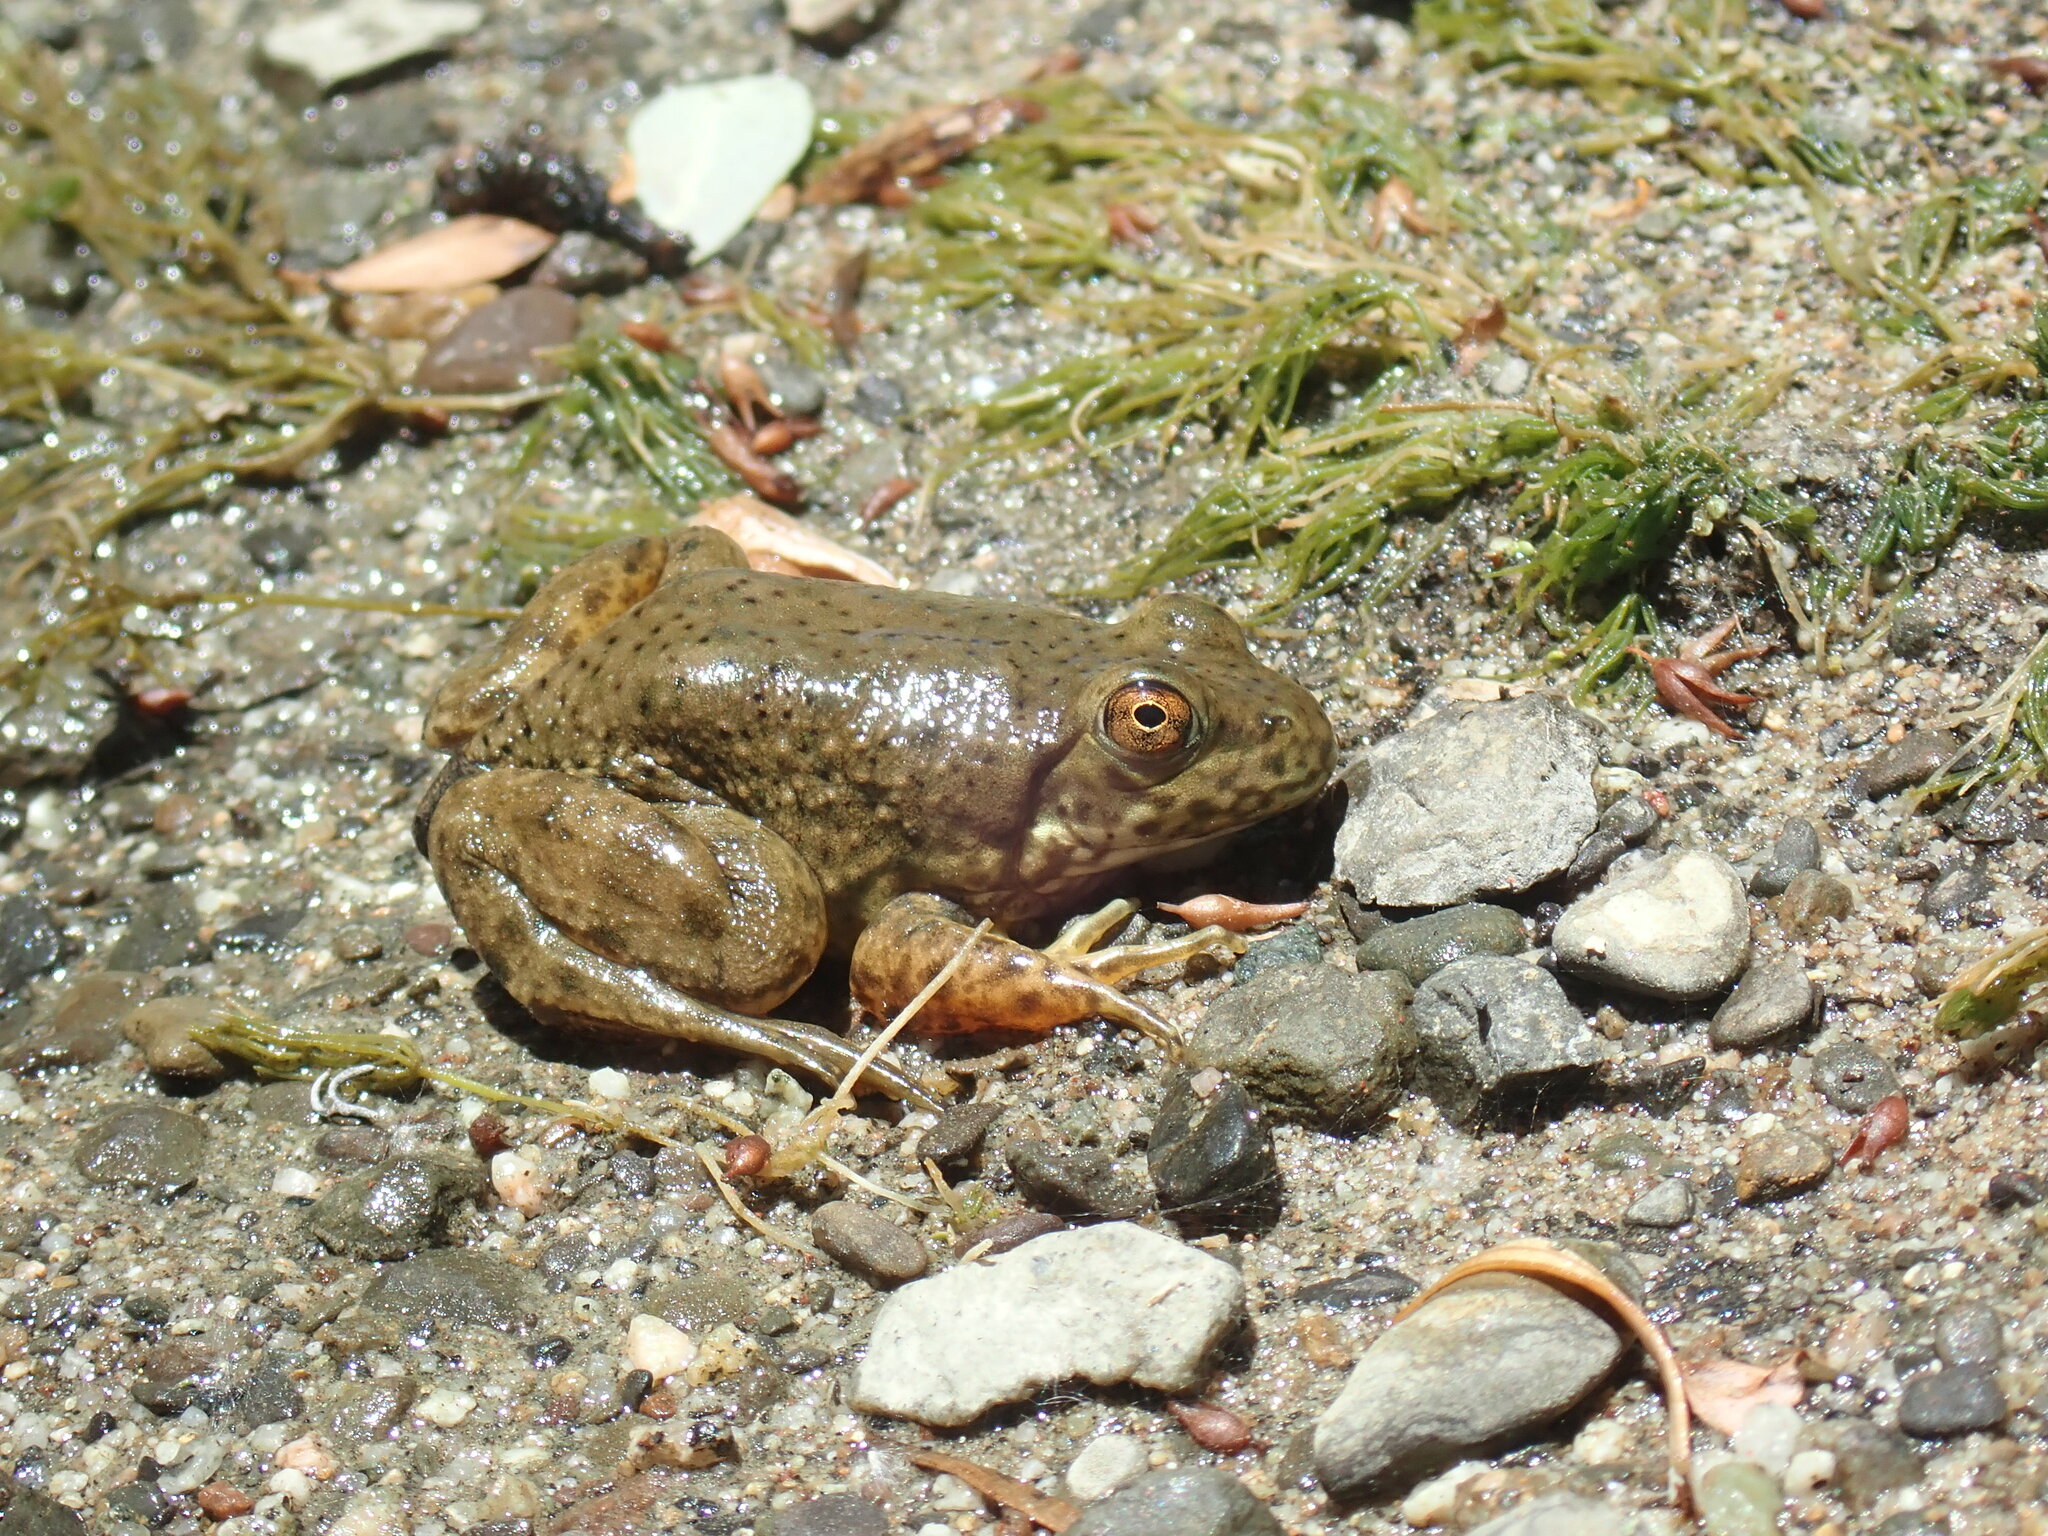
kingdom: Animalia
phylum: Chordata
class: Amphibia
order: Anura
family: Ranidae
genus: Lithobates
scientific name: Lithobates catesbeianus
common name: American bullfrog
